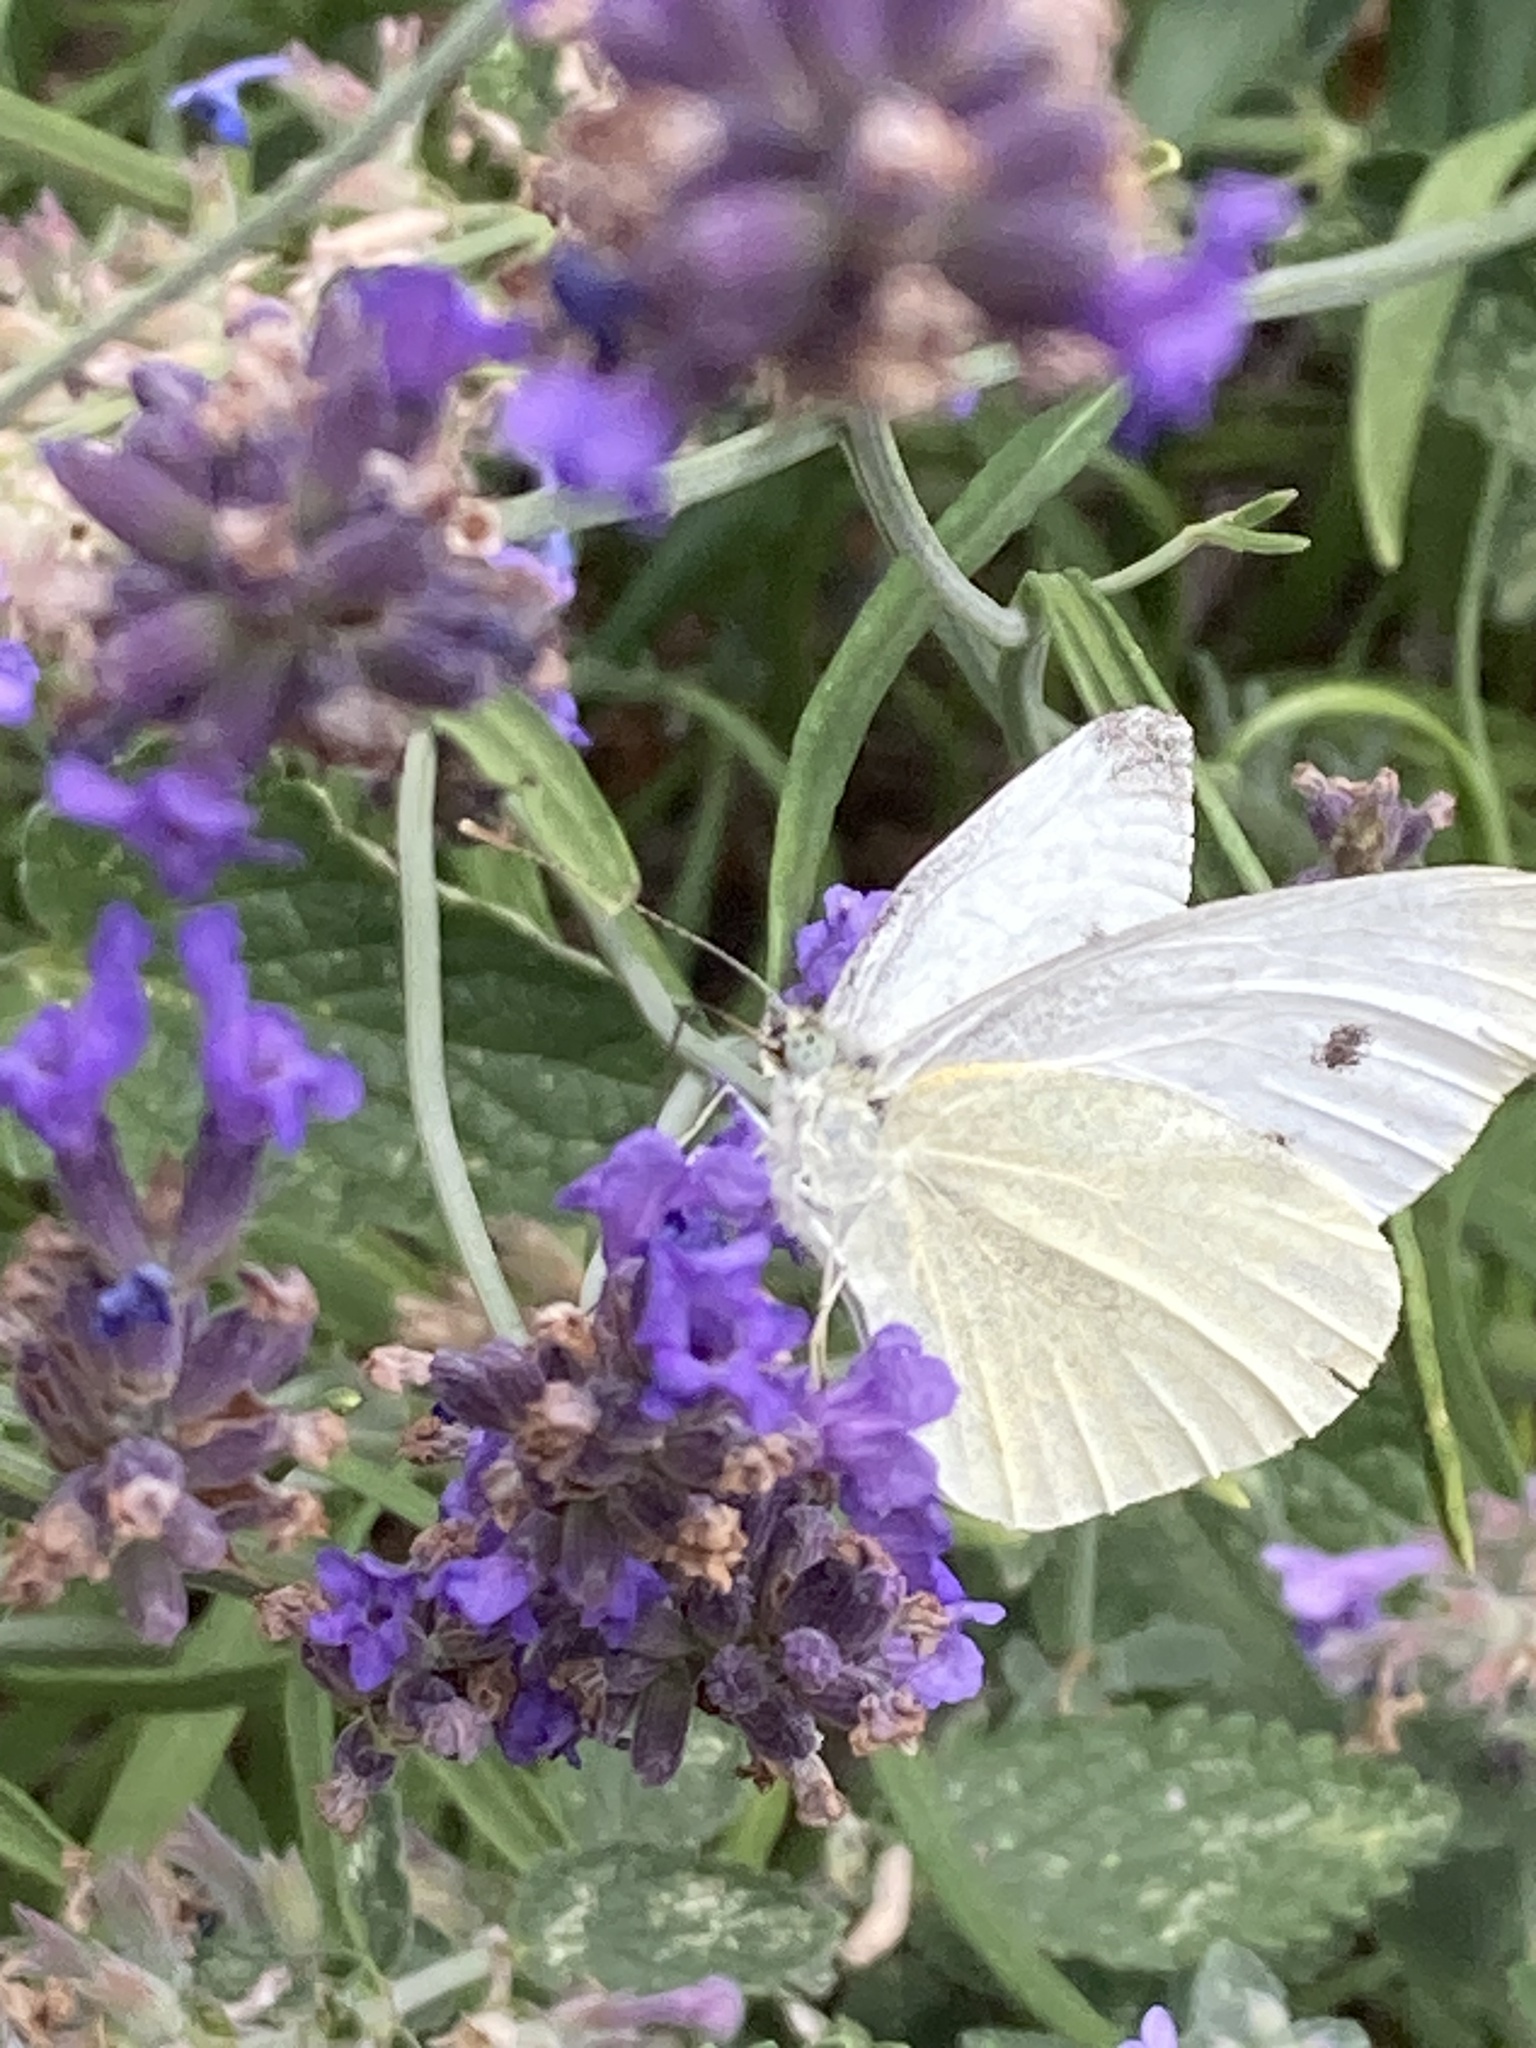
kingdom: Animalia
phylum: Arthropoda
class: Insecta
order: Lepidoptera
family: Pieridae
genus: Pieris
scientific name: Pieris rapae
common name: Small white
